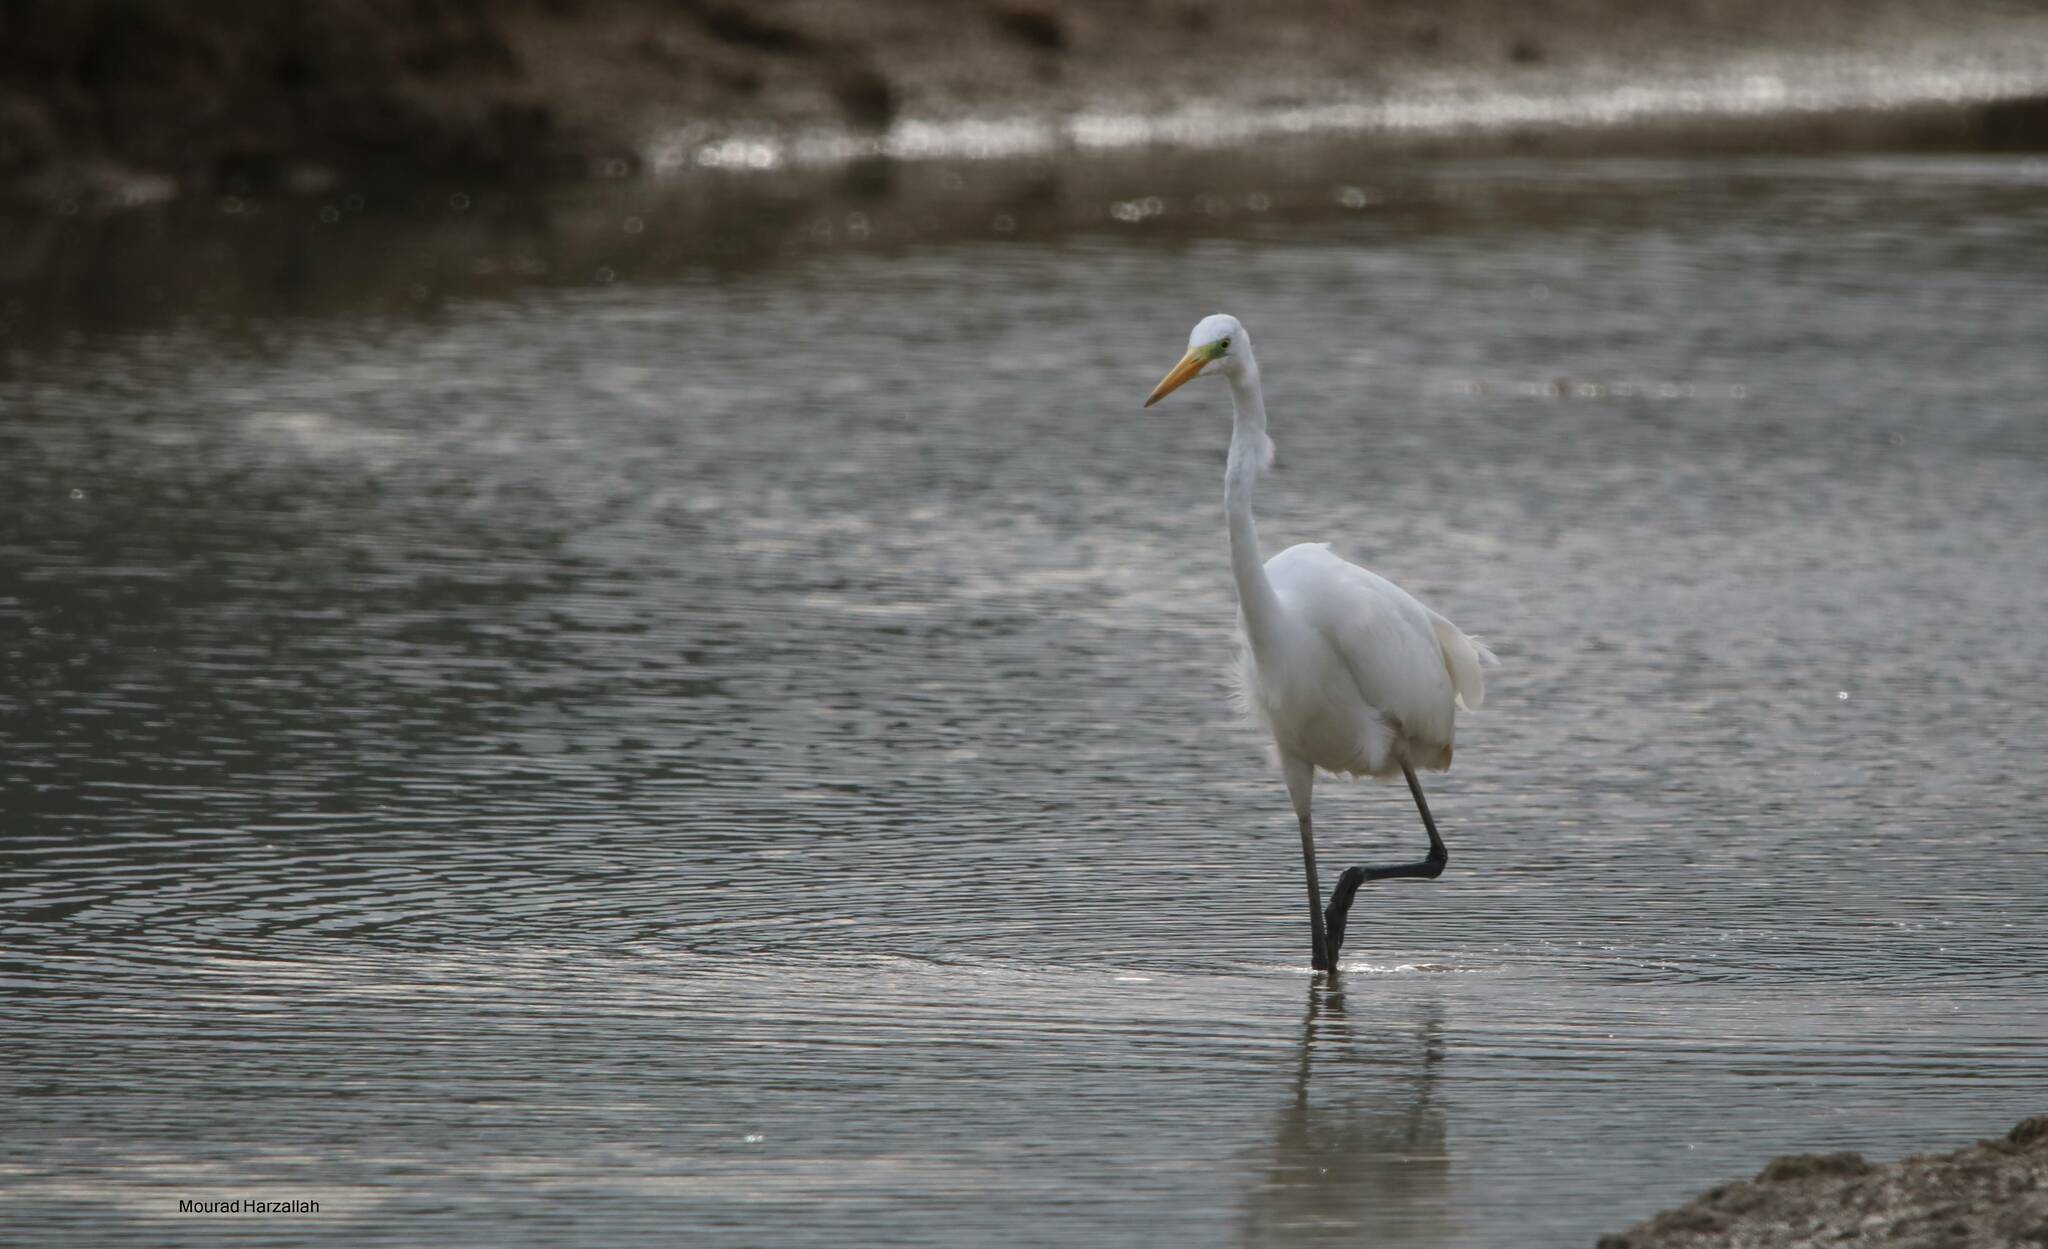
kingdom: Animalia
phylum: Chordata
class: Aves
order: Pelecaniformes
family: Ardeidae
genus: Ardea
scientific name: Ardea alba
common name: Great egret
